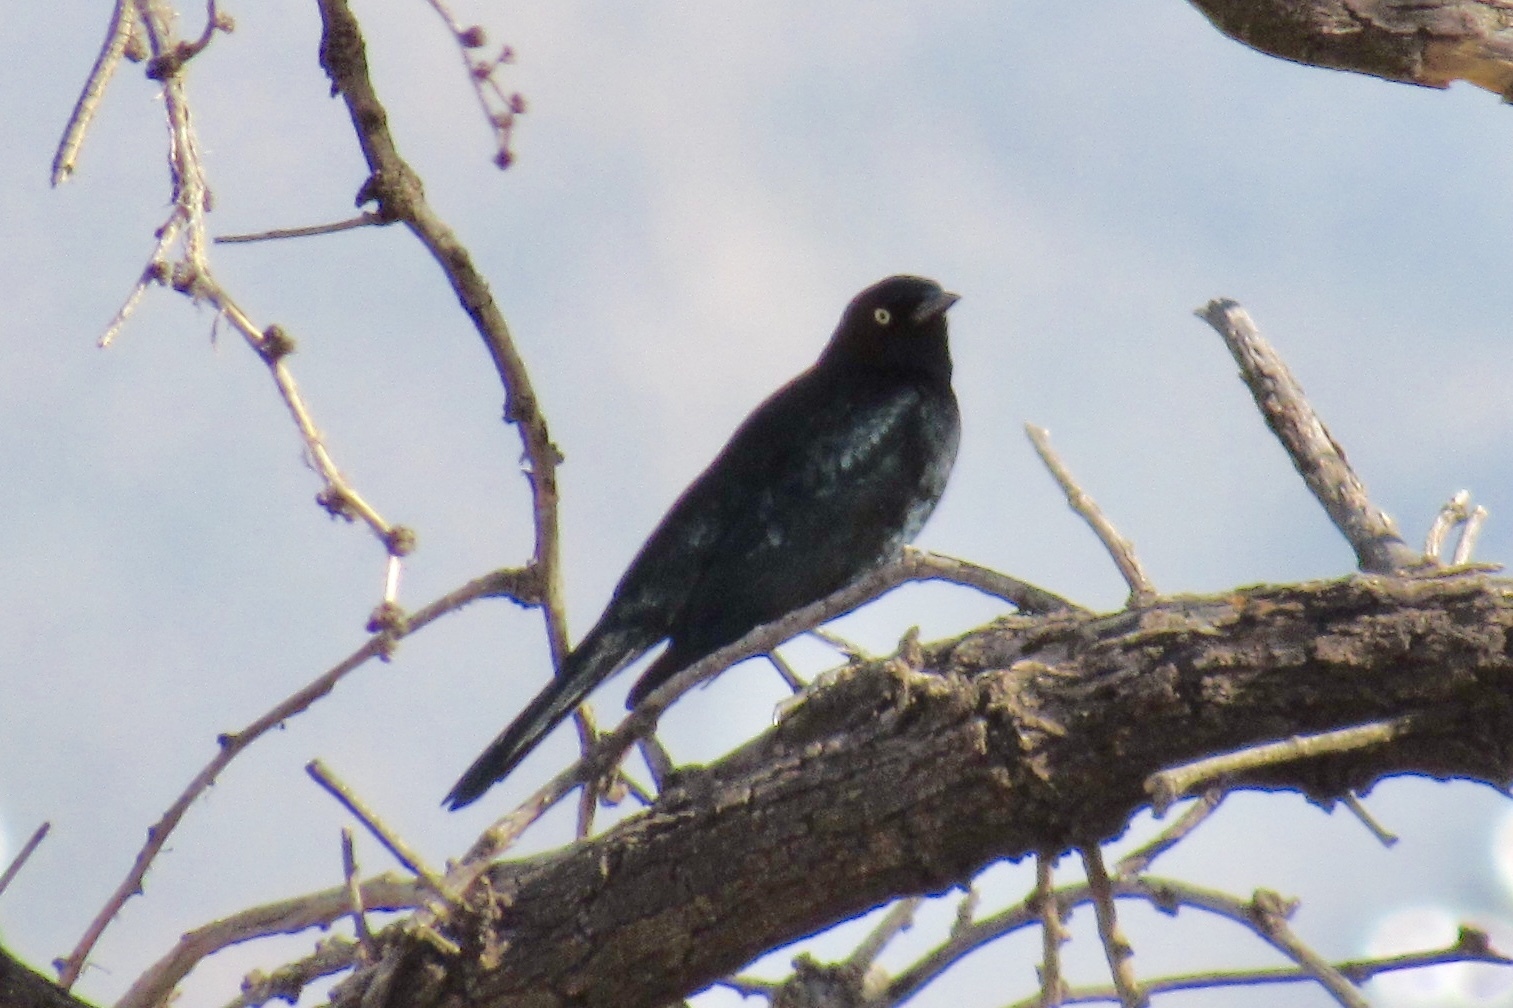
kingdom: Animalia
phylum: Chordata
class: Aves
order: Passeriformes
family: Icteridae
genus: Euphagus
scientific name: Euphagus cyanocephalus
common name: Brewer's blackbird
